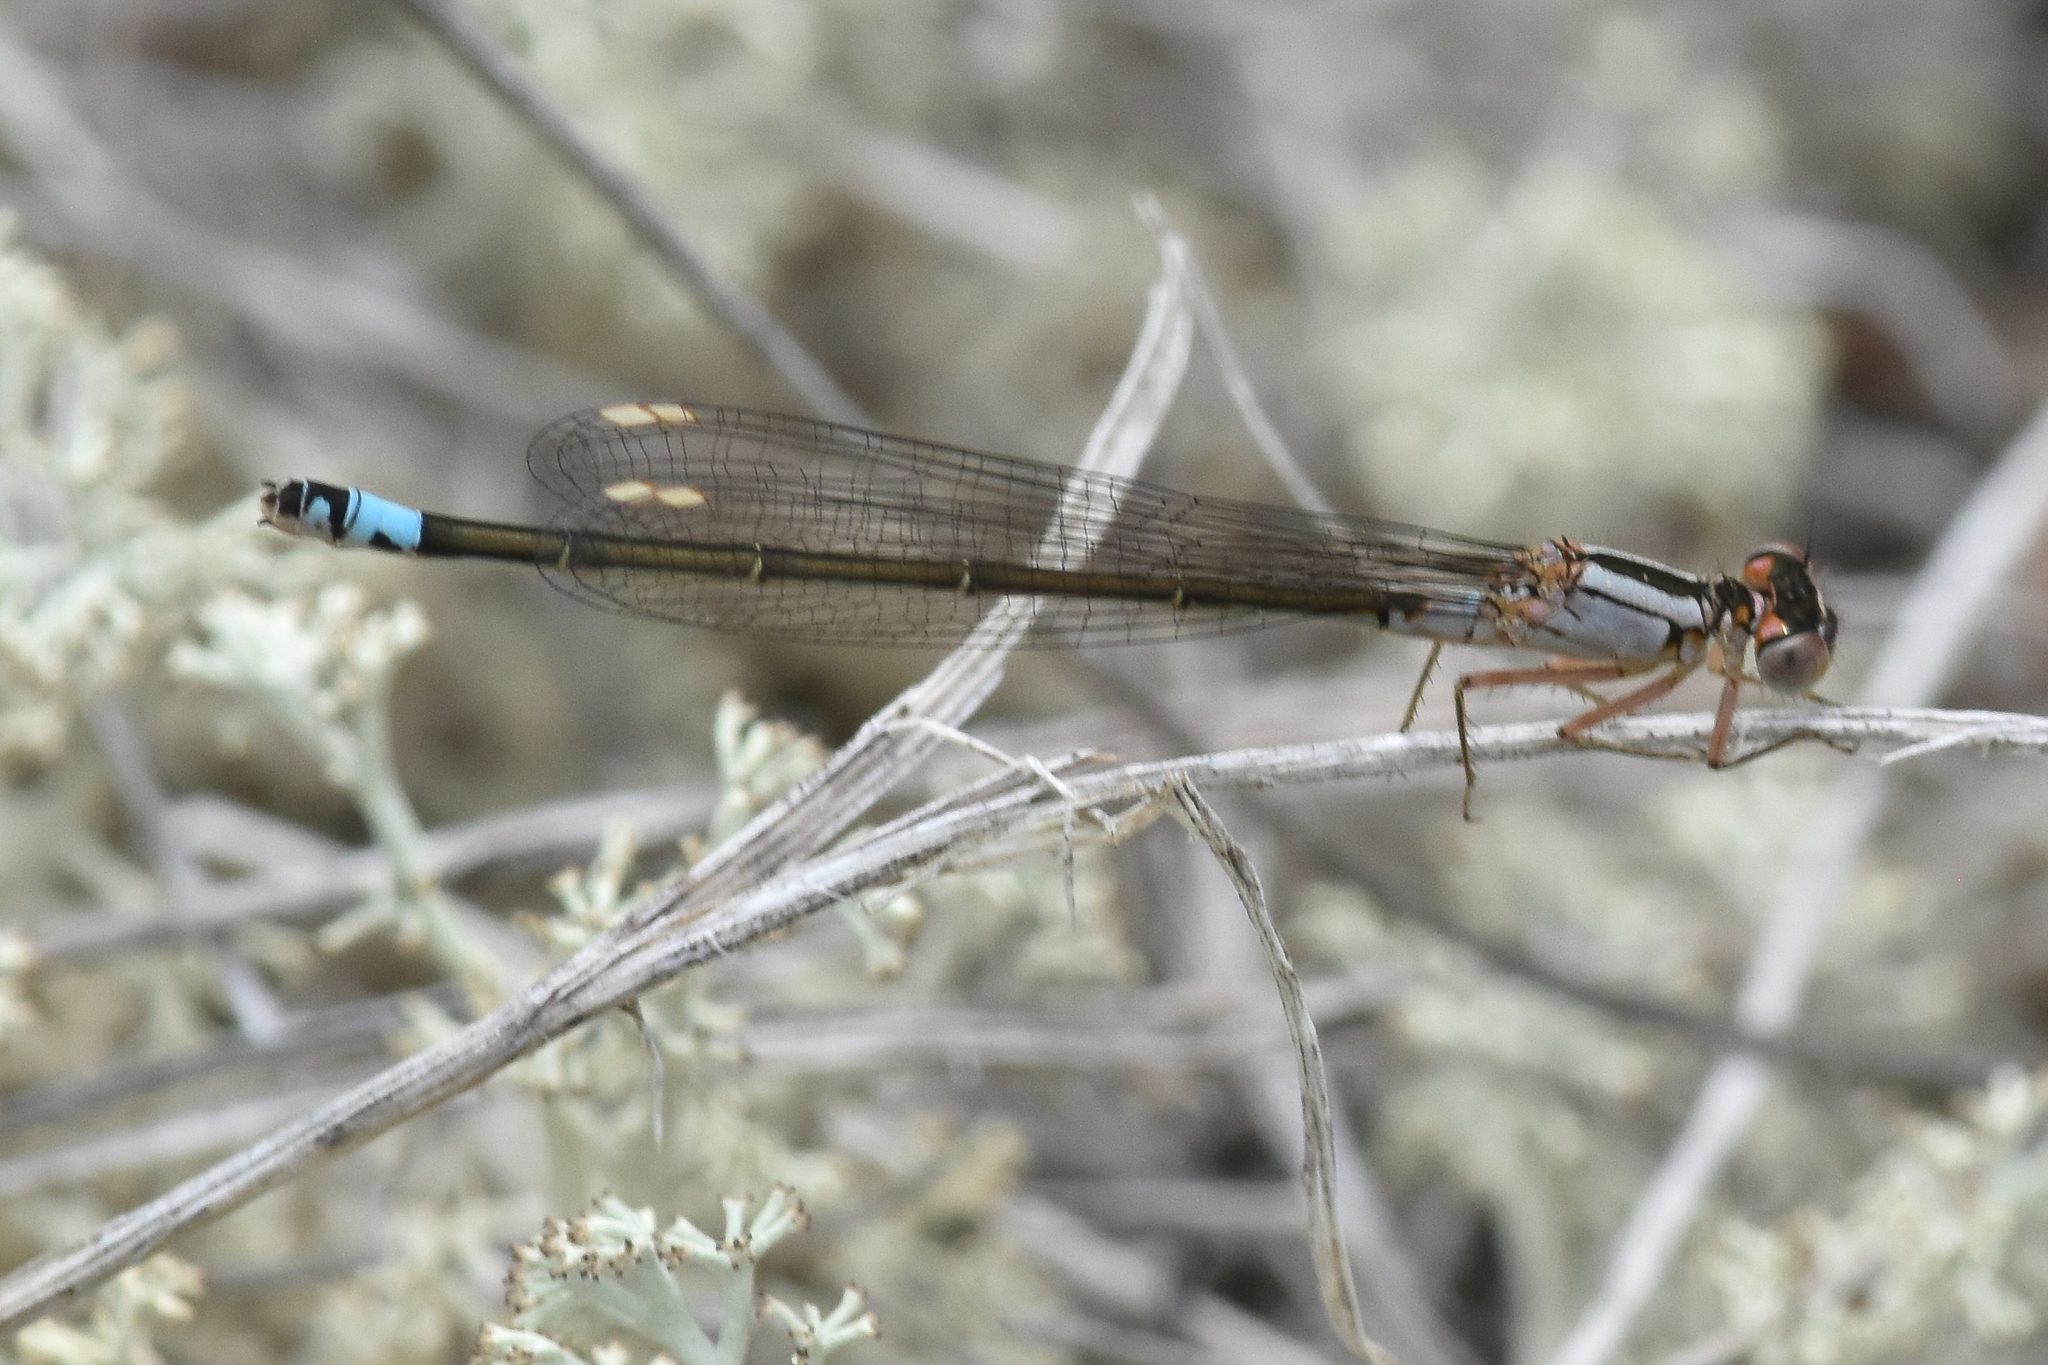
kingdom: Animalia
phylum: Arthropoda
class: Insecta
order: Odonata
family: Coenagrionidae
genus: Ischnura
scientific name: Ischnura cervula
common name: Pacific forktail
